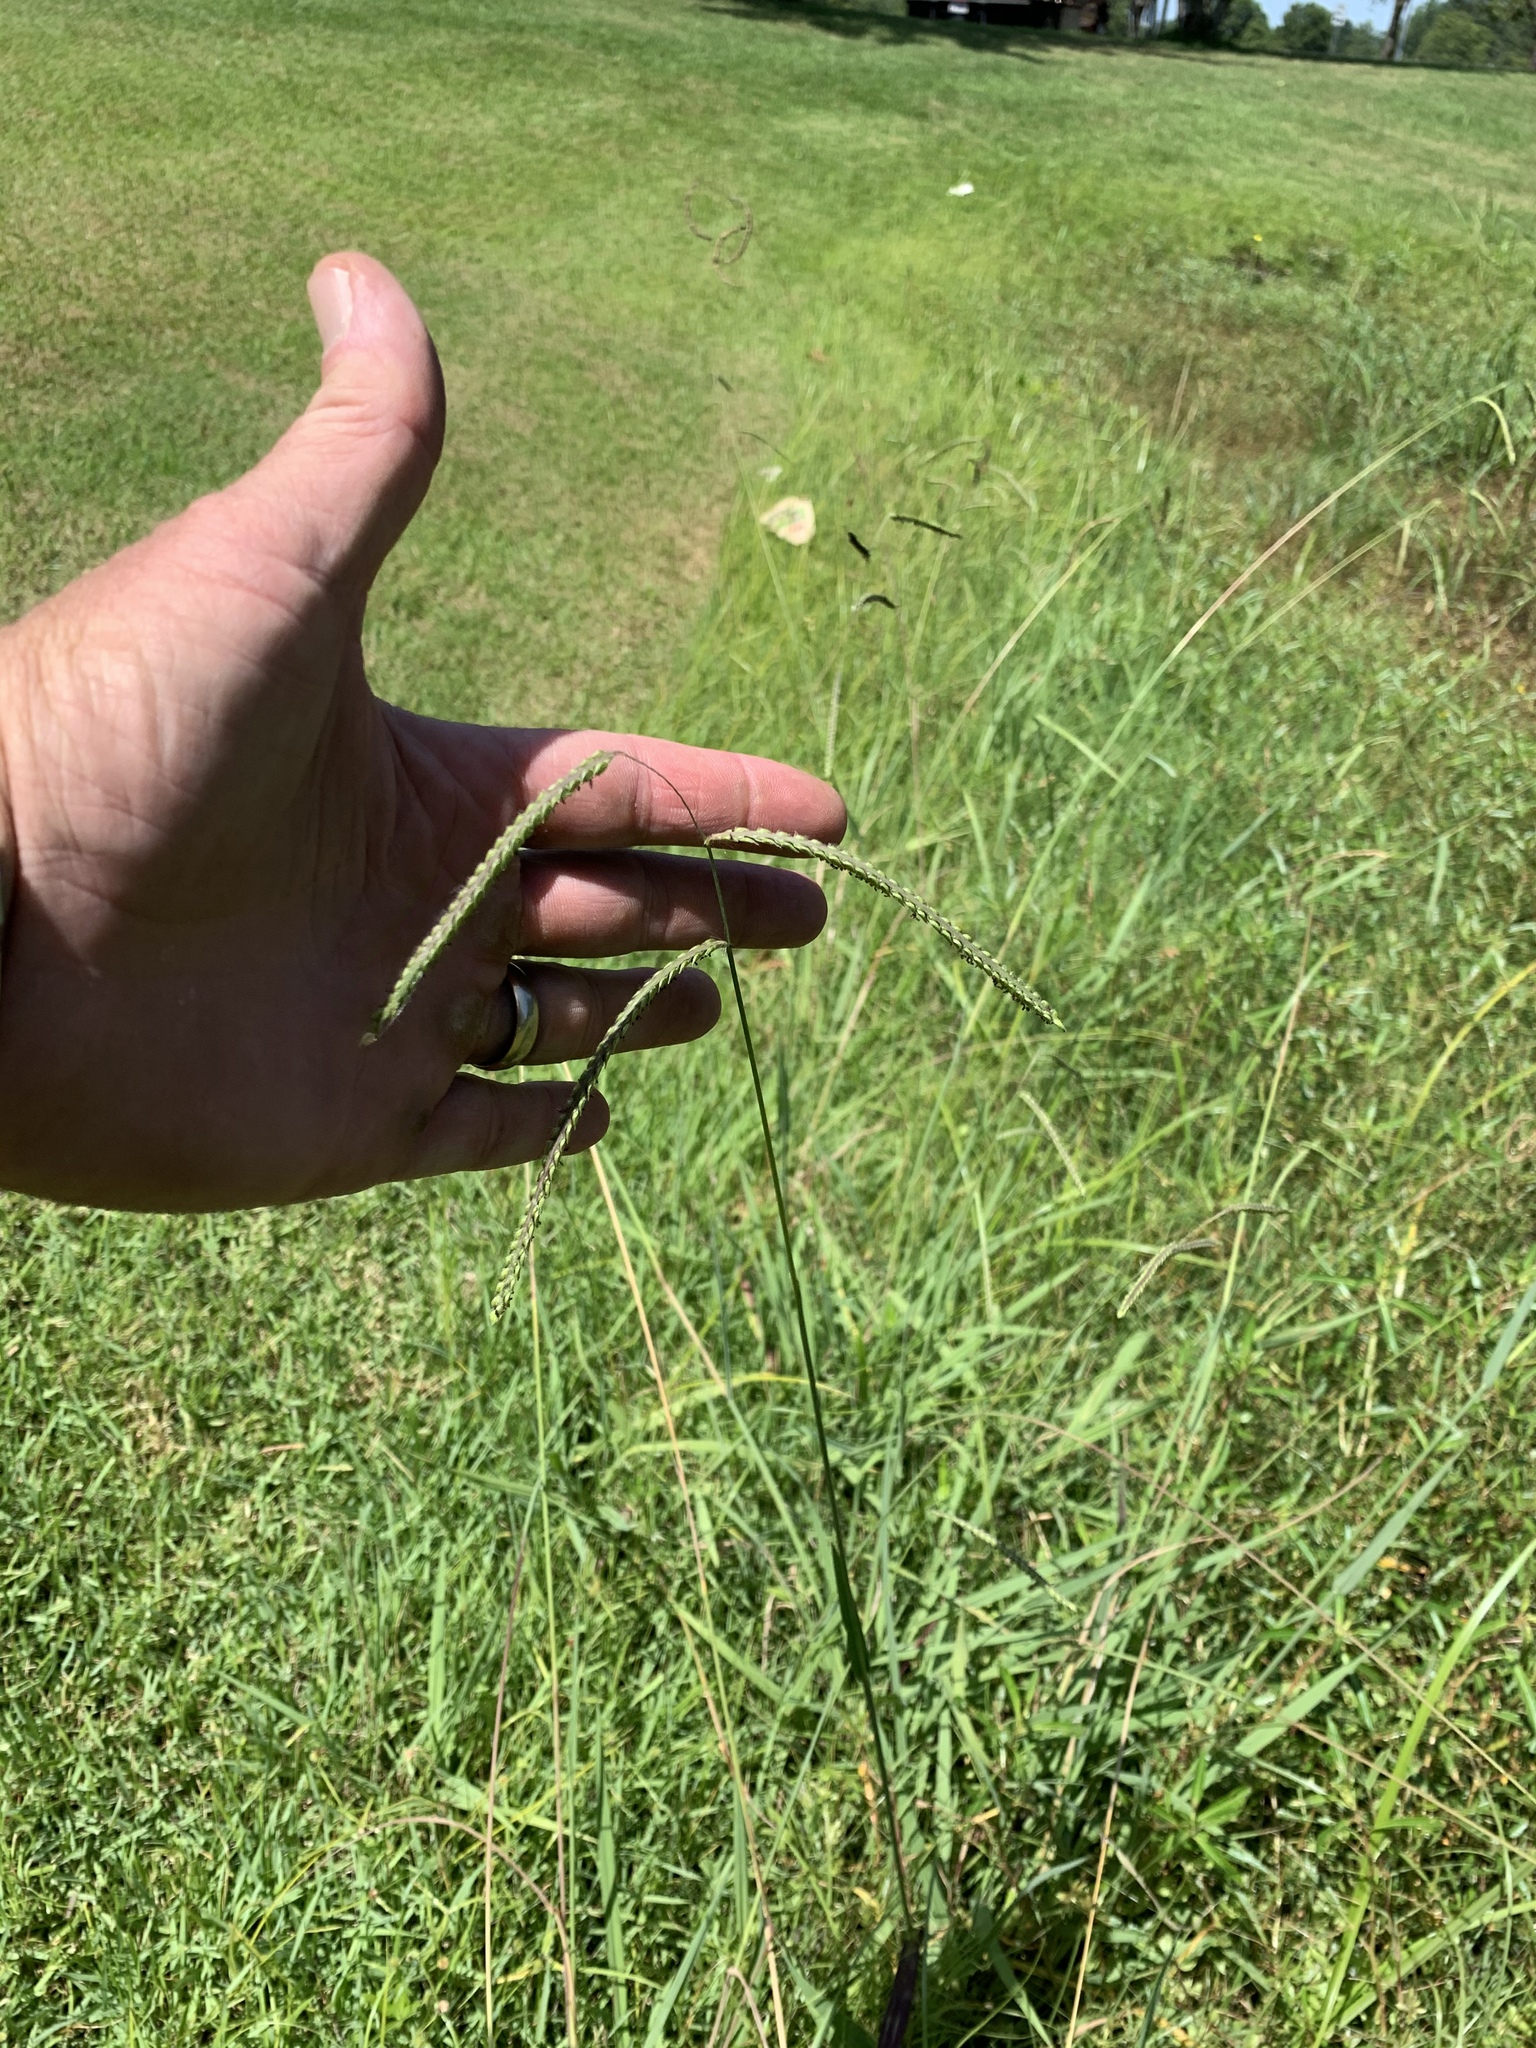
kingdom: Plantae
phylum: Tracheophyta
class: Liliopsida
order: Poales
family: Poaceae
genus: Paspalum
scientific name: Paspalum dilatatum
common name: Dallisgrass
